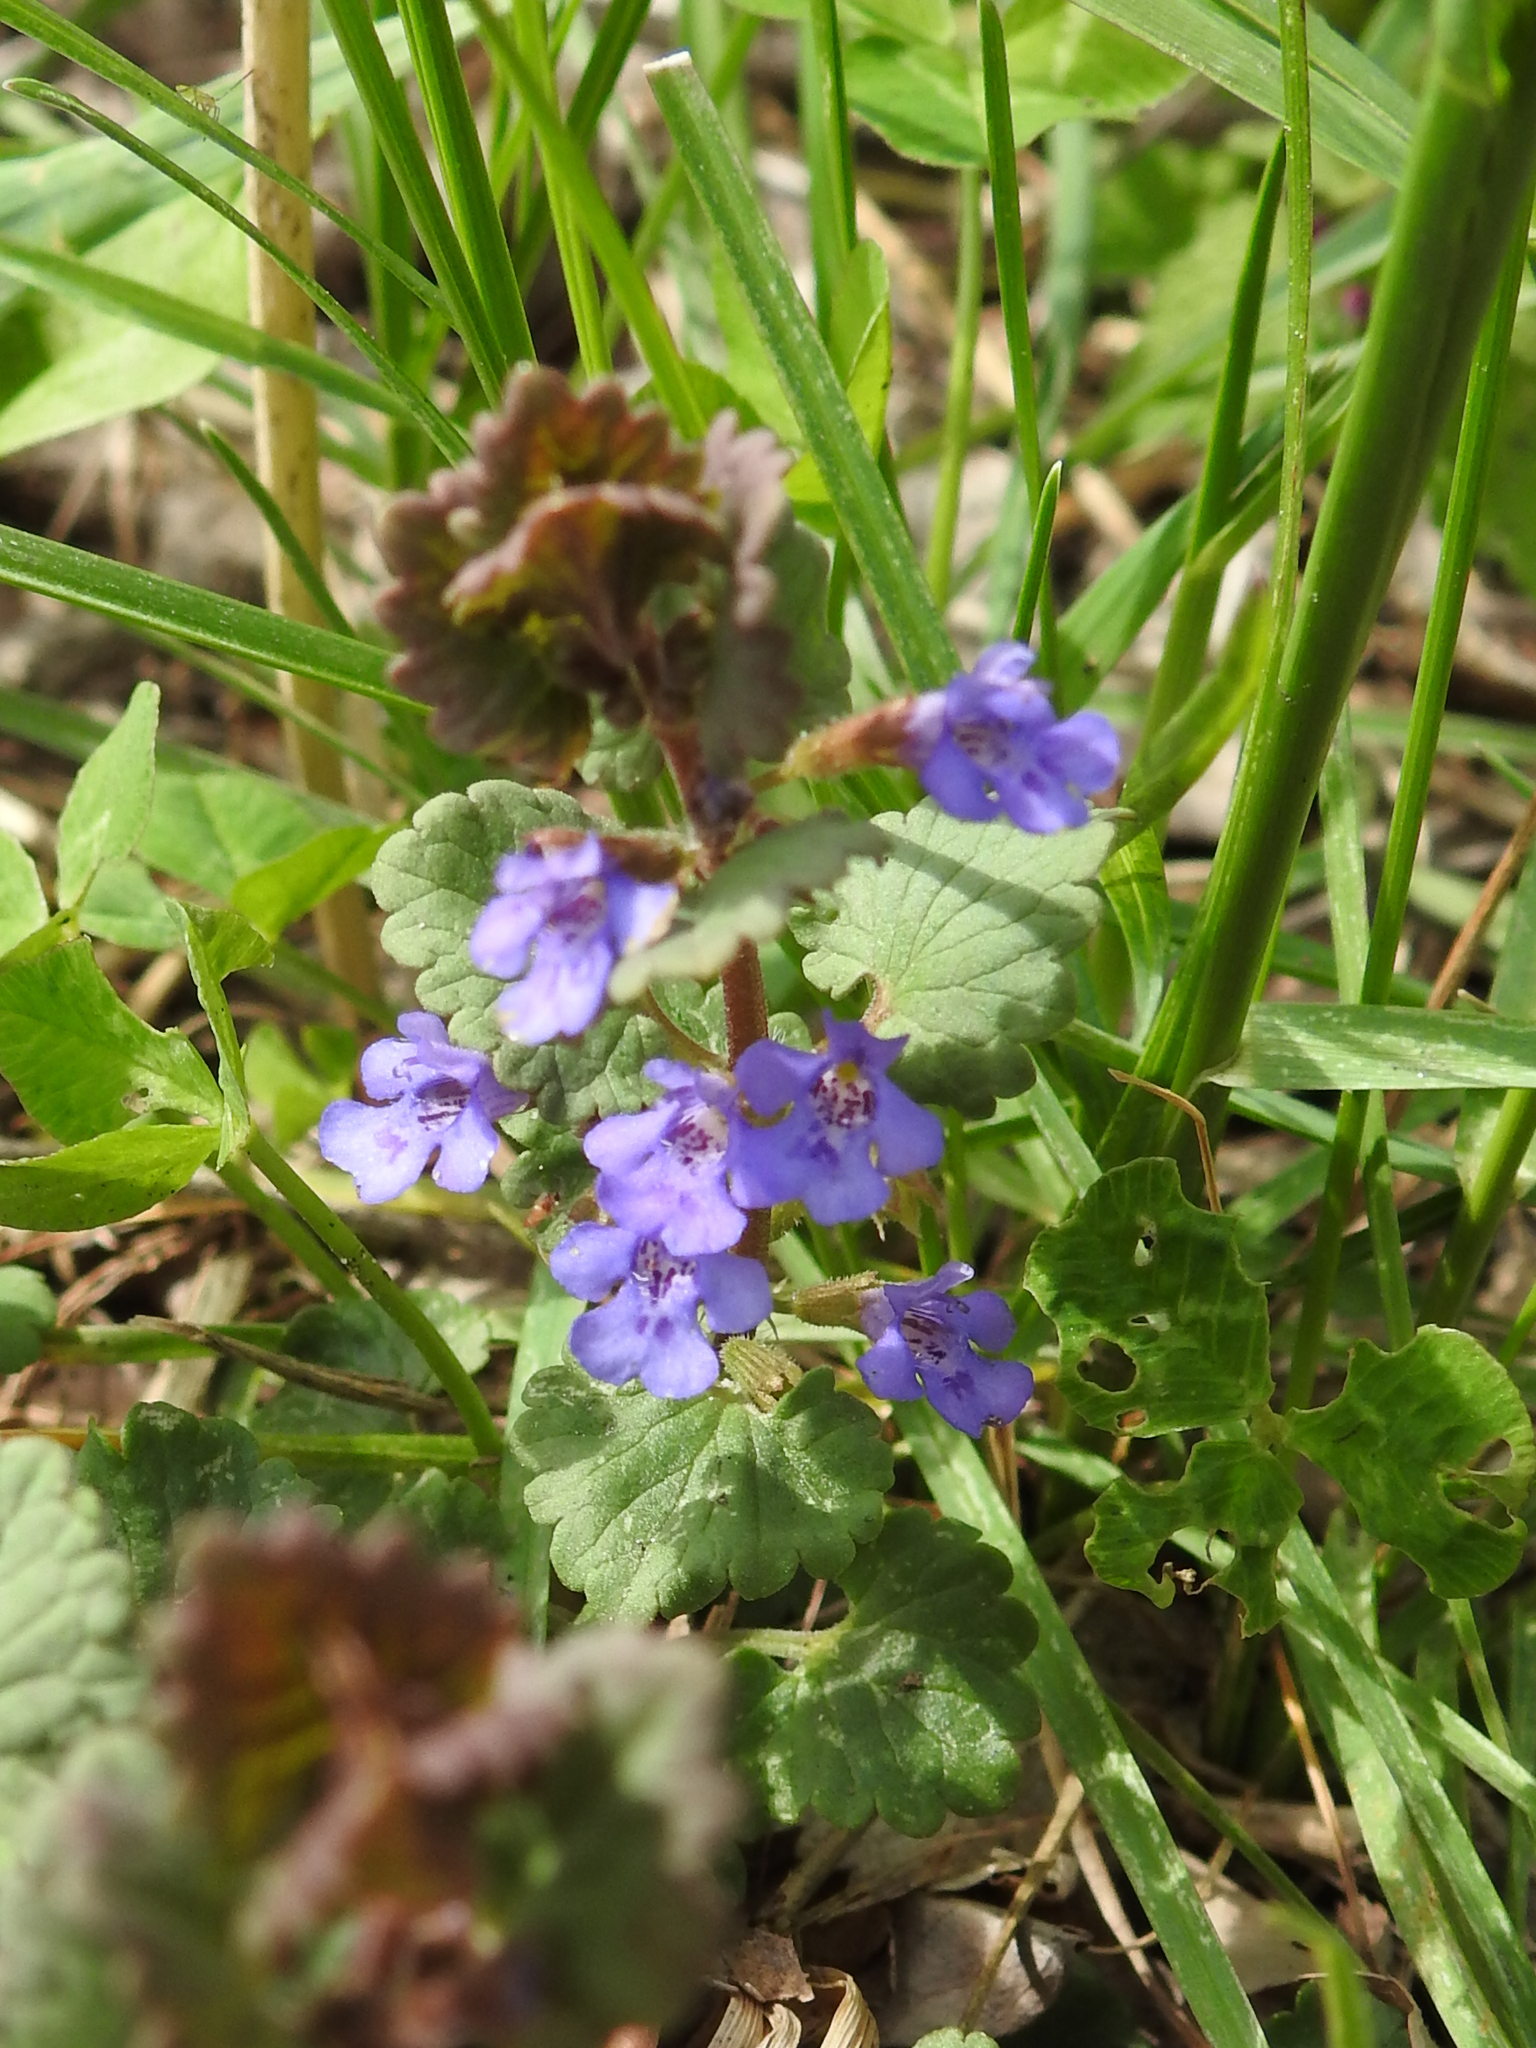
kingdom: Plantae
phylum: Tracheophyta
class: Magnoliopsida
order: Lamiales
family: Lamiaceae
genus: Glechoma
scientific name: Glechoma hederacea
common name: Ground ivy
